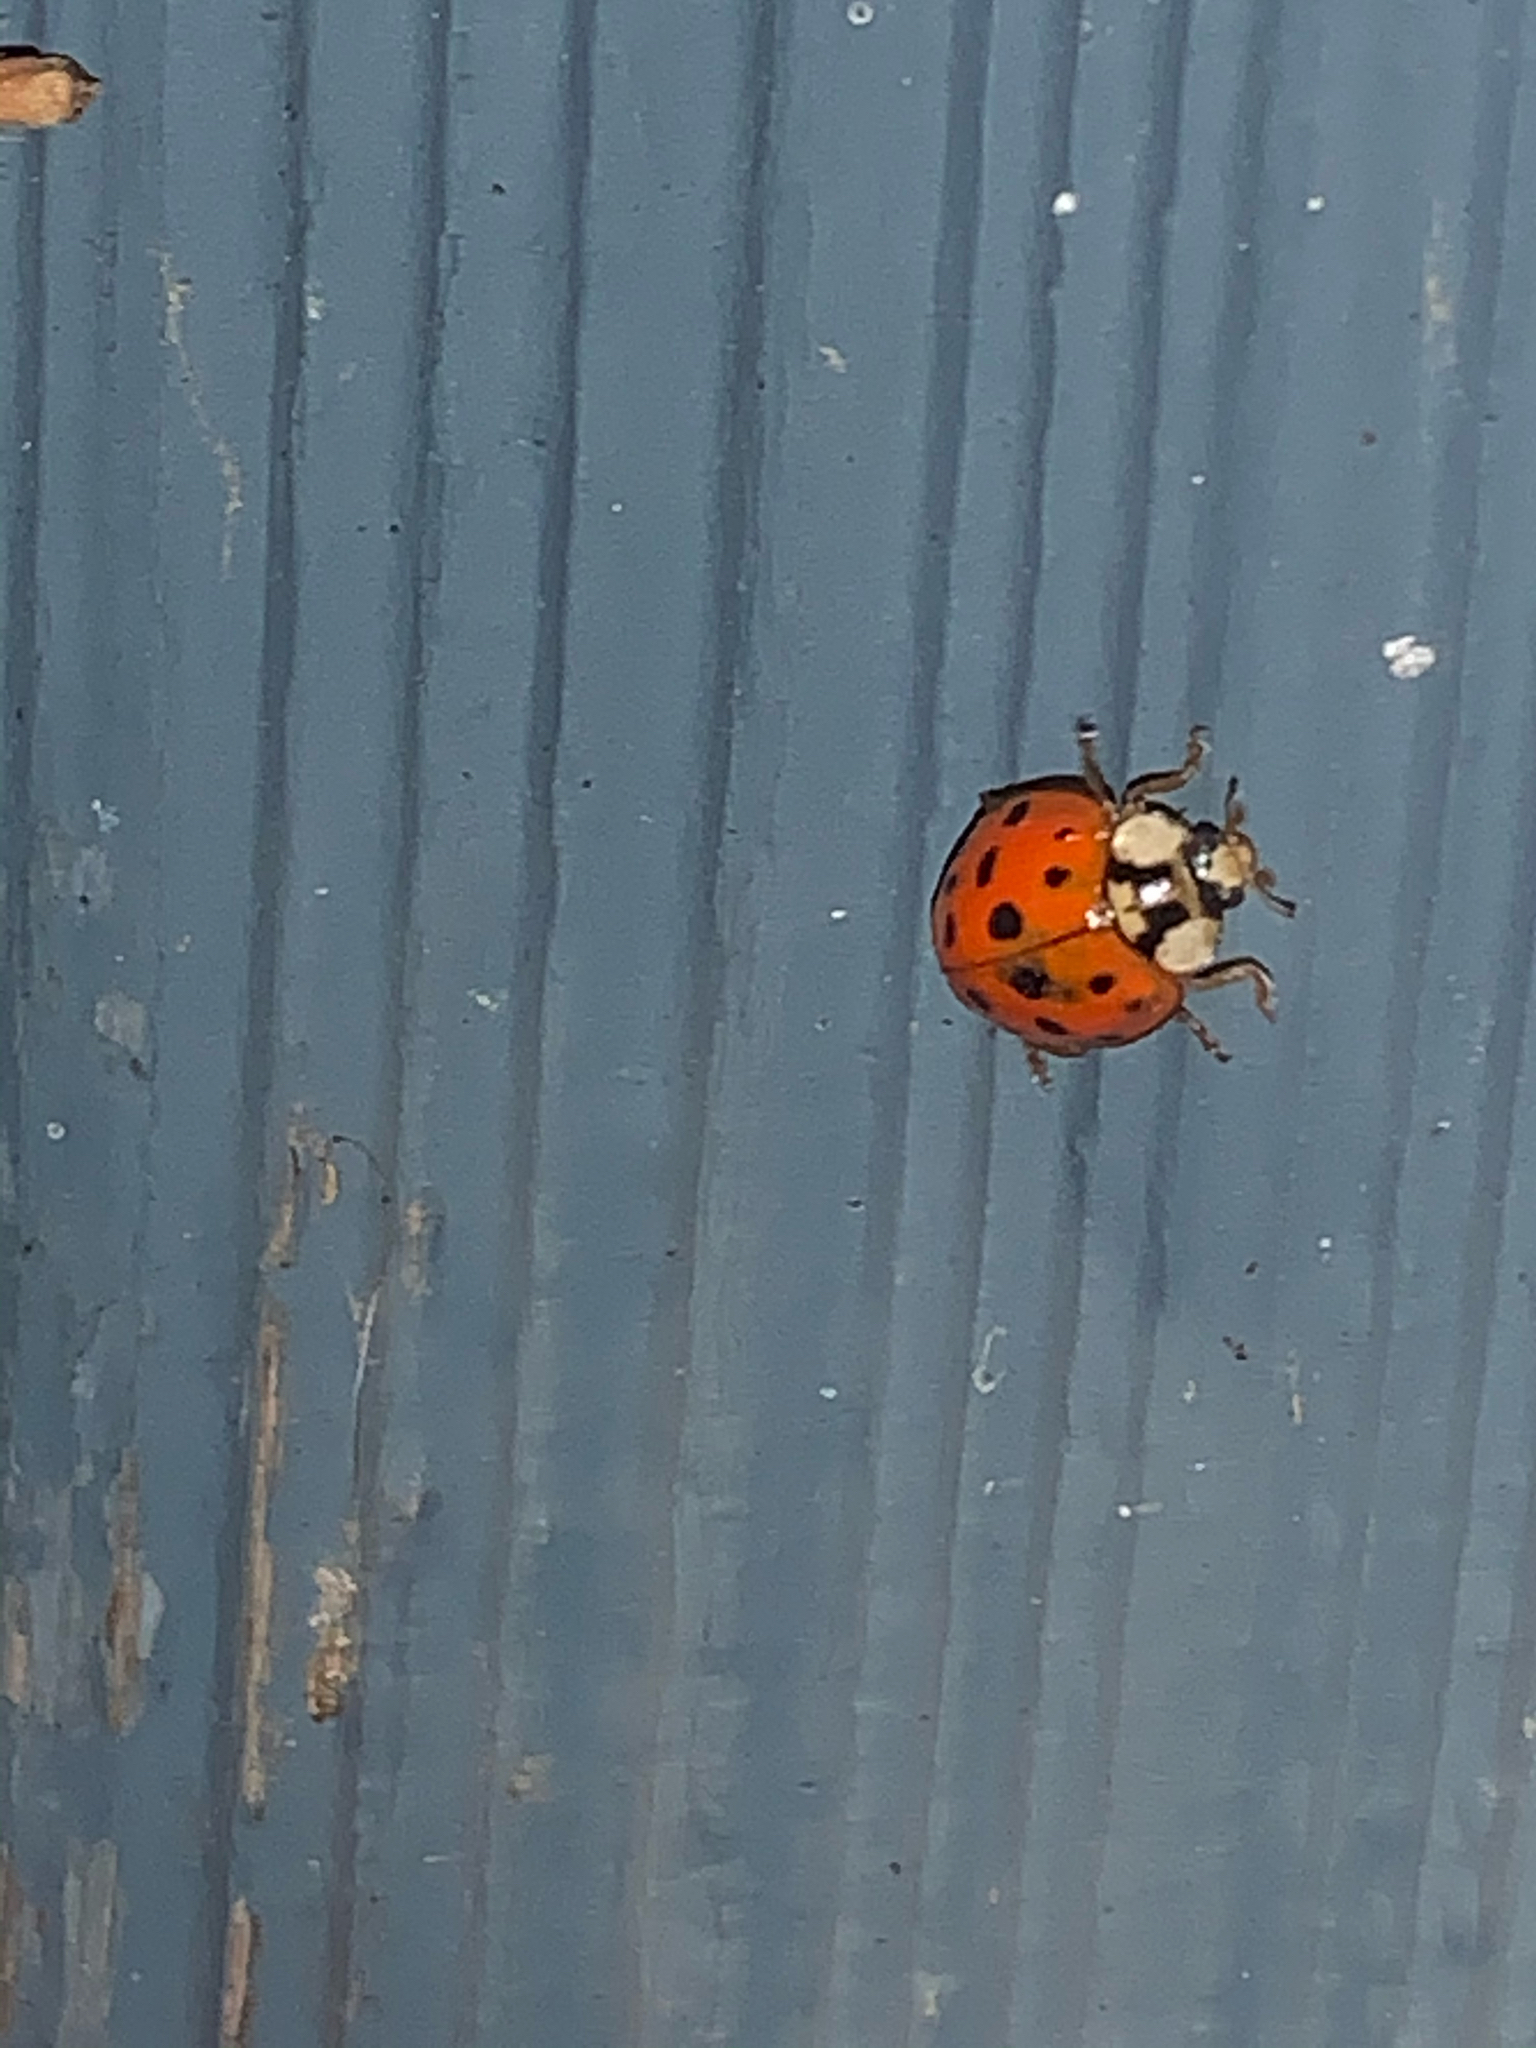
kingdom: Animalia
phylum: Arthropoda
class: Insecta
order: Coleoptera
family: Coccinellidae
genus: Harmonia
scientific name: Harmonia axyridis
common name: Harlequin ladybird
